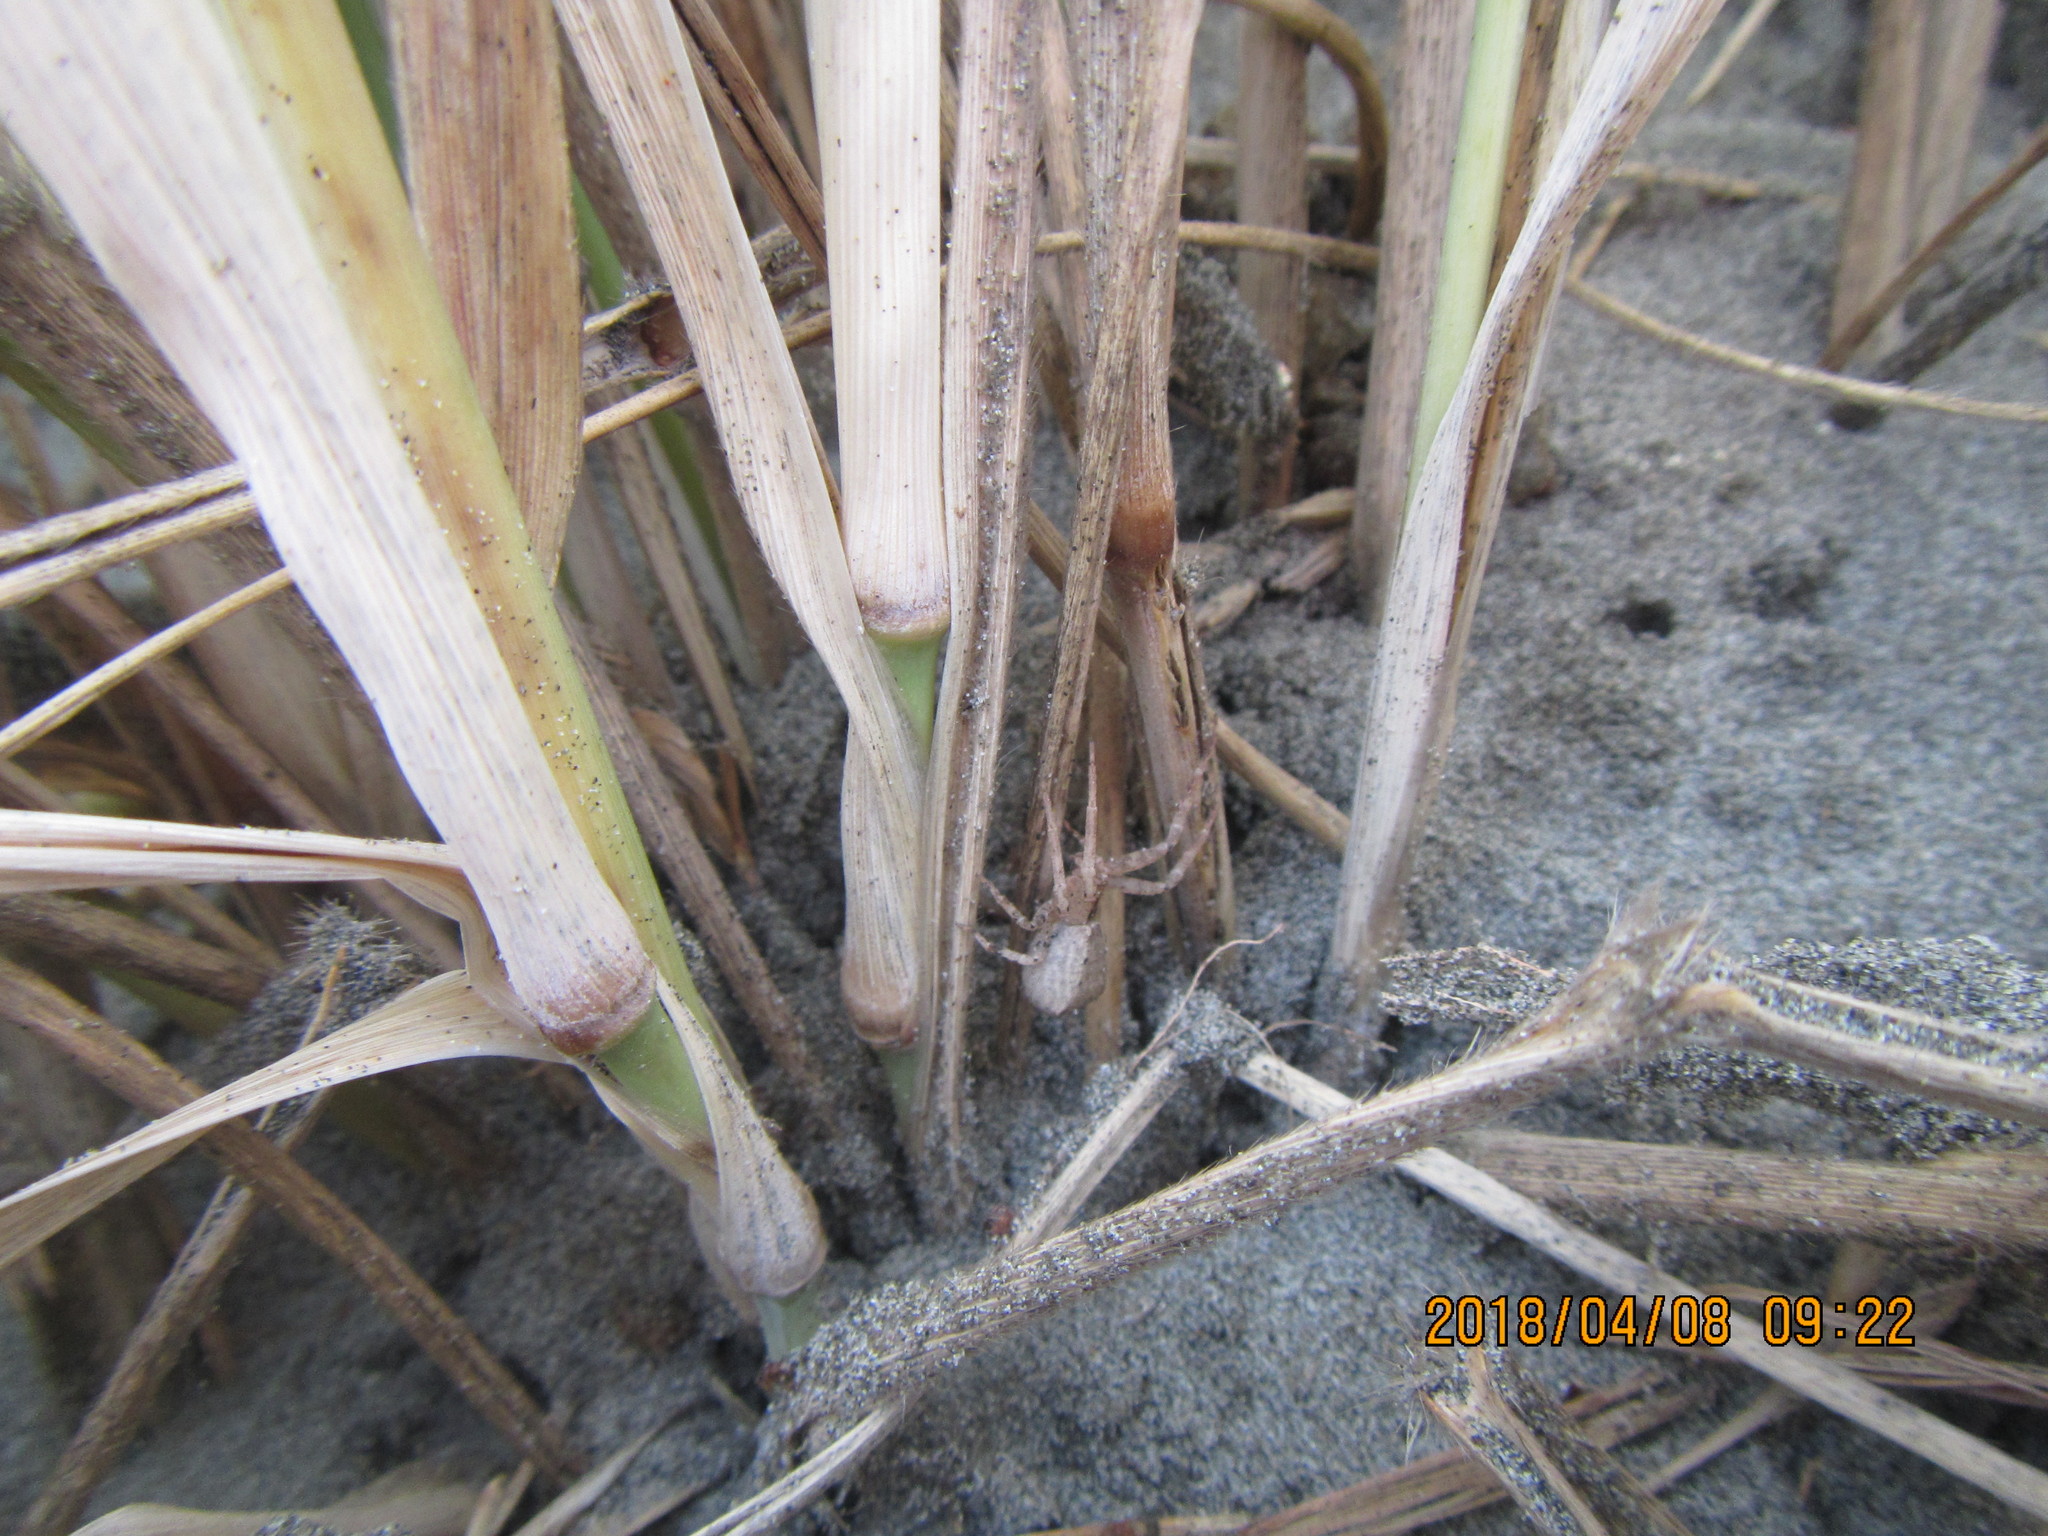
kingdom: Animalia
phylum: Arthropoda
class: Arachnida
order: Araneae
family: Thomisidae
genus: Sidymella
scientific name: Sidymella trapezia
